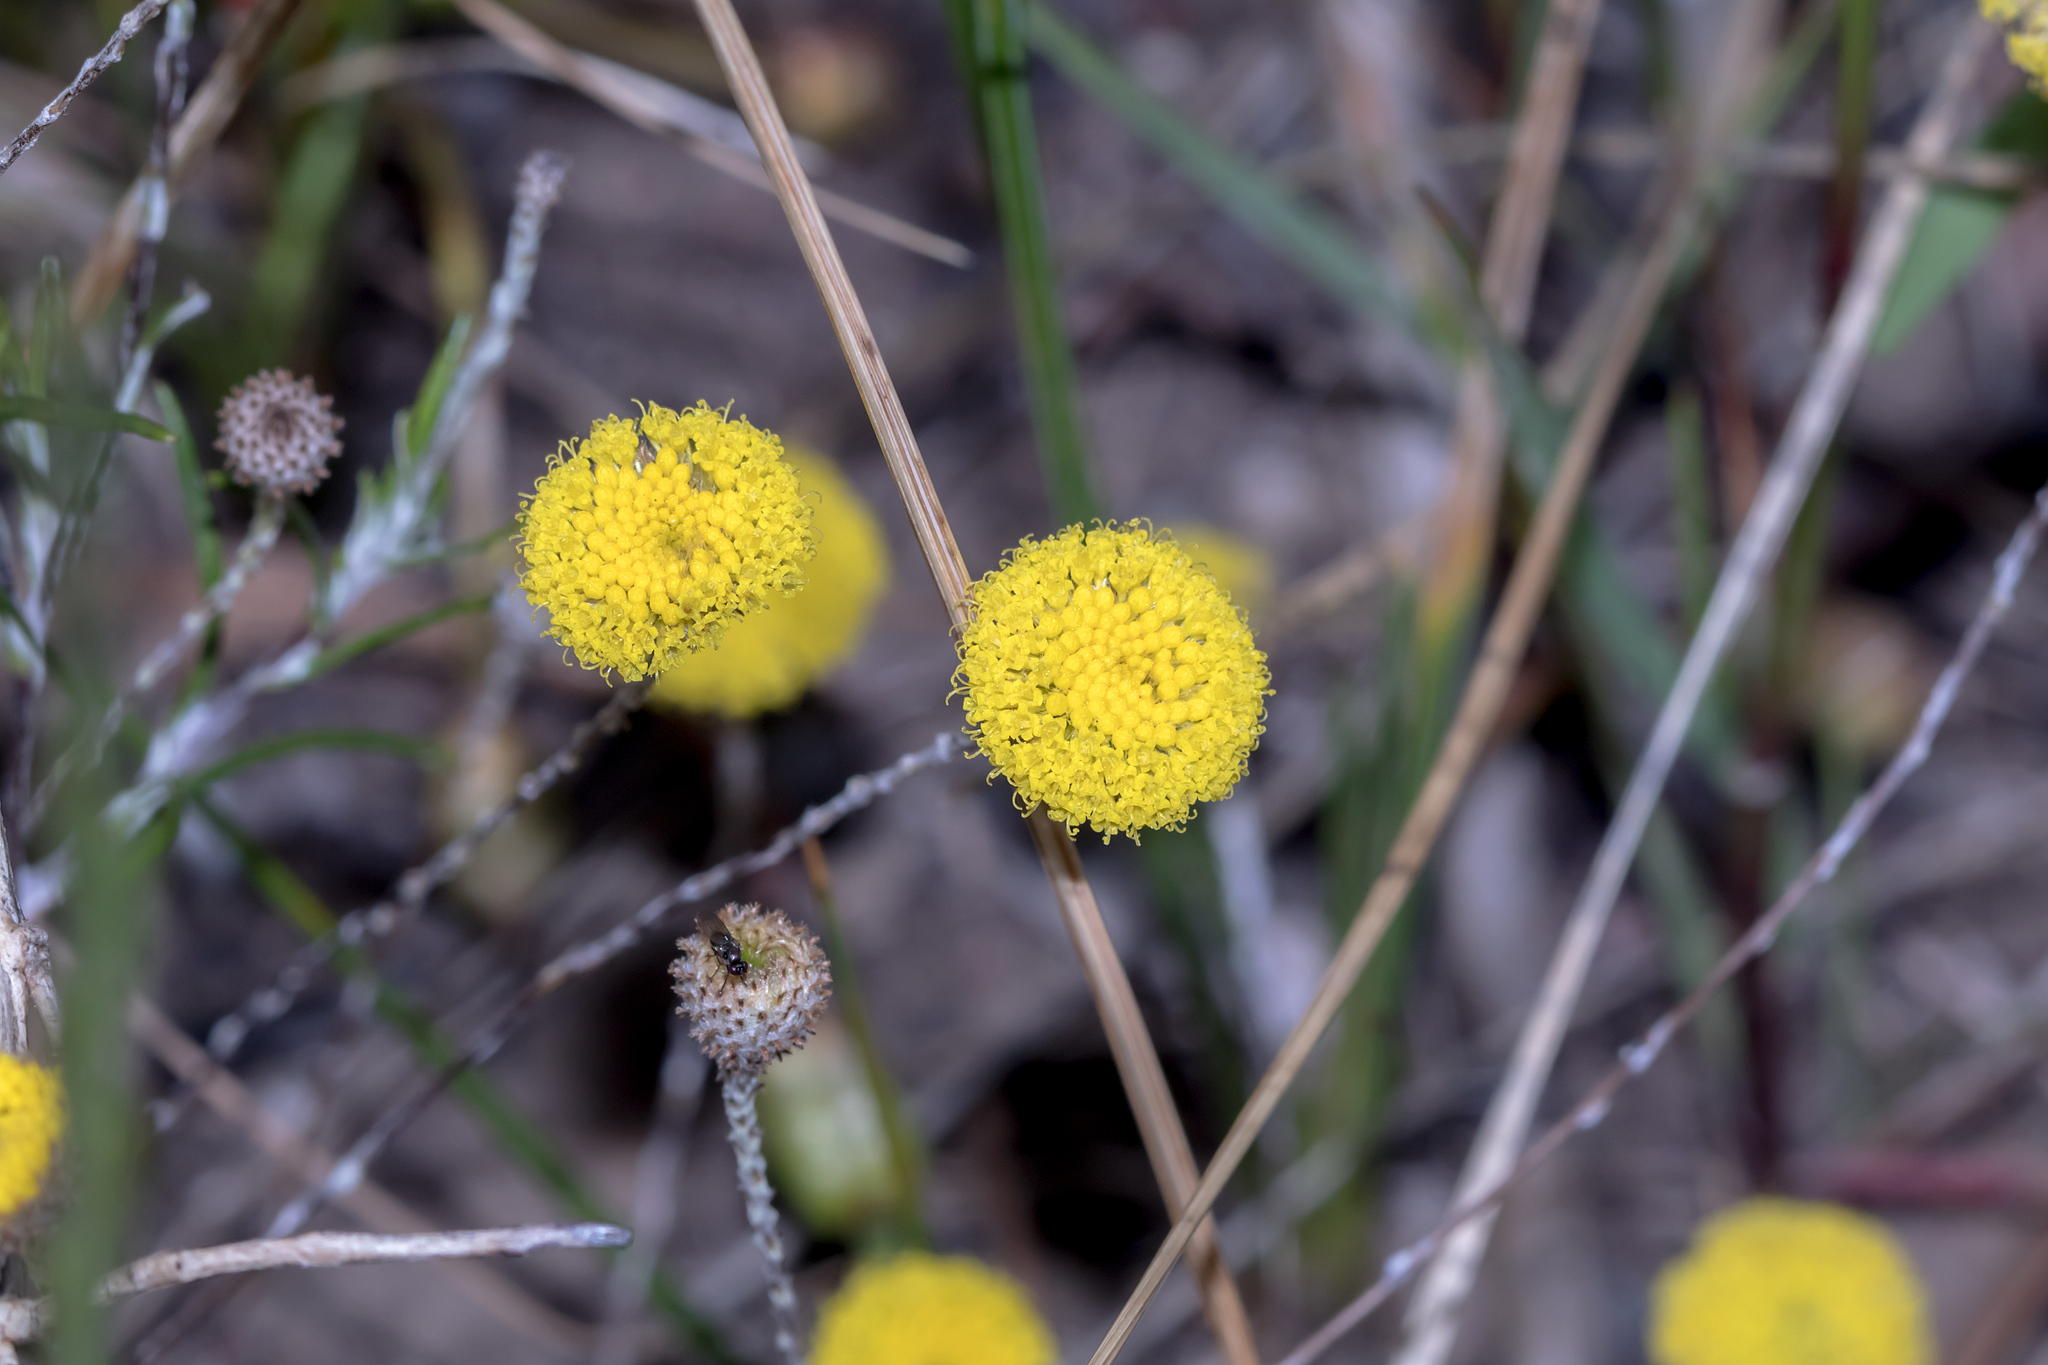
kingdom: Plantae
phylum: Tracheophyta
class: Magnoliopsida
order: Asterales
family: Asteraceae
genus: Leptorhynchos
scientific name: Leptorhynchos tenuifolius
